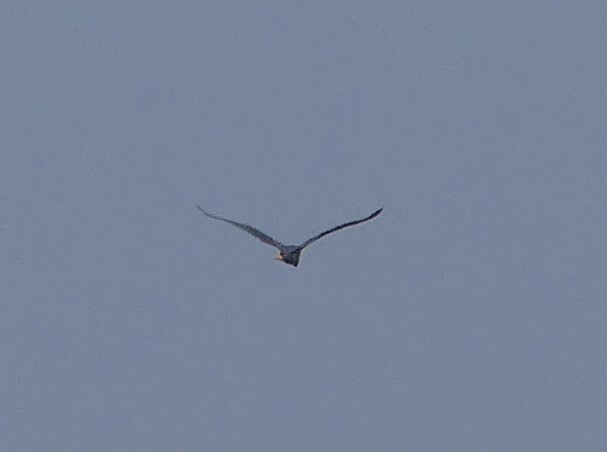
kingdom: Animalia
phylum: Chordata
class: Aves
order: Pelecaniformes
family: Ardeidae
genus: Nycticorax
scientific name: Nycticorax nycticorax
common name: Black-crowned night heron
